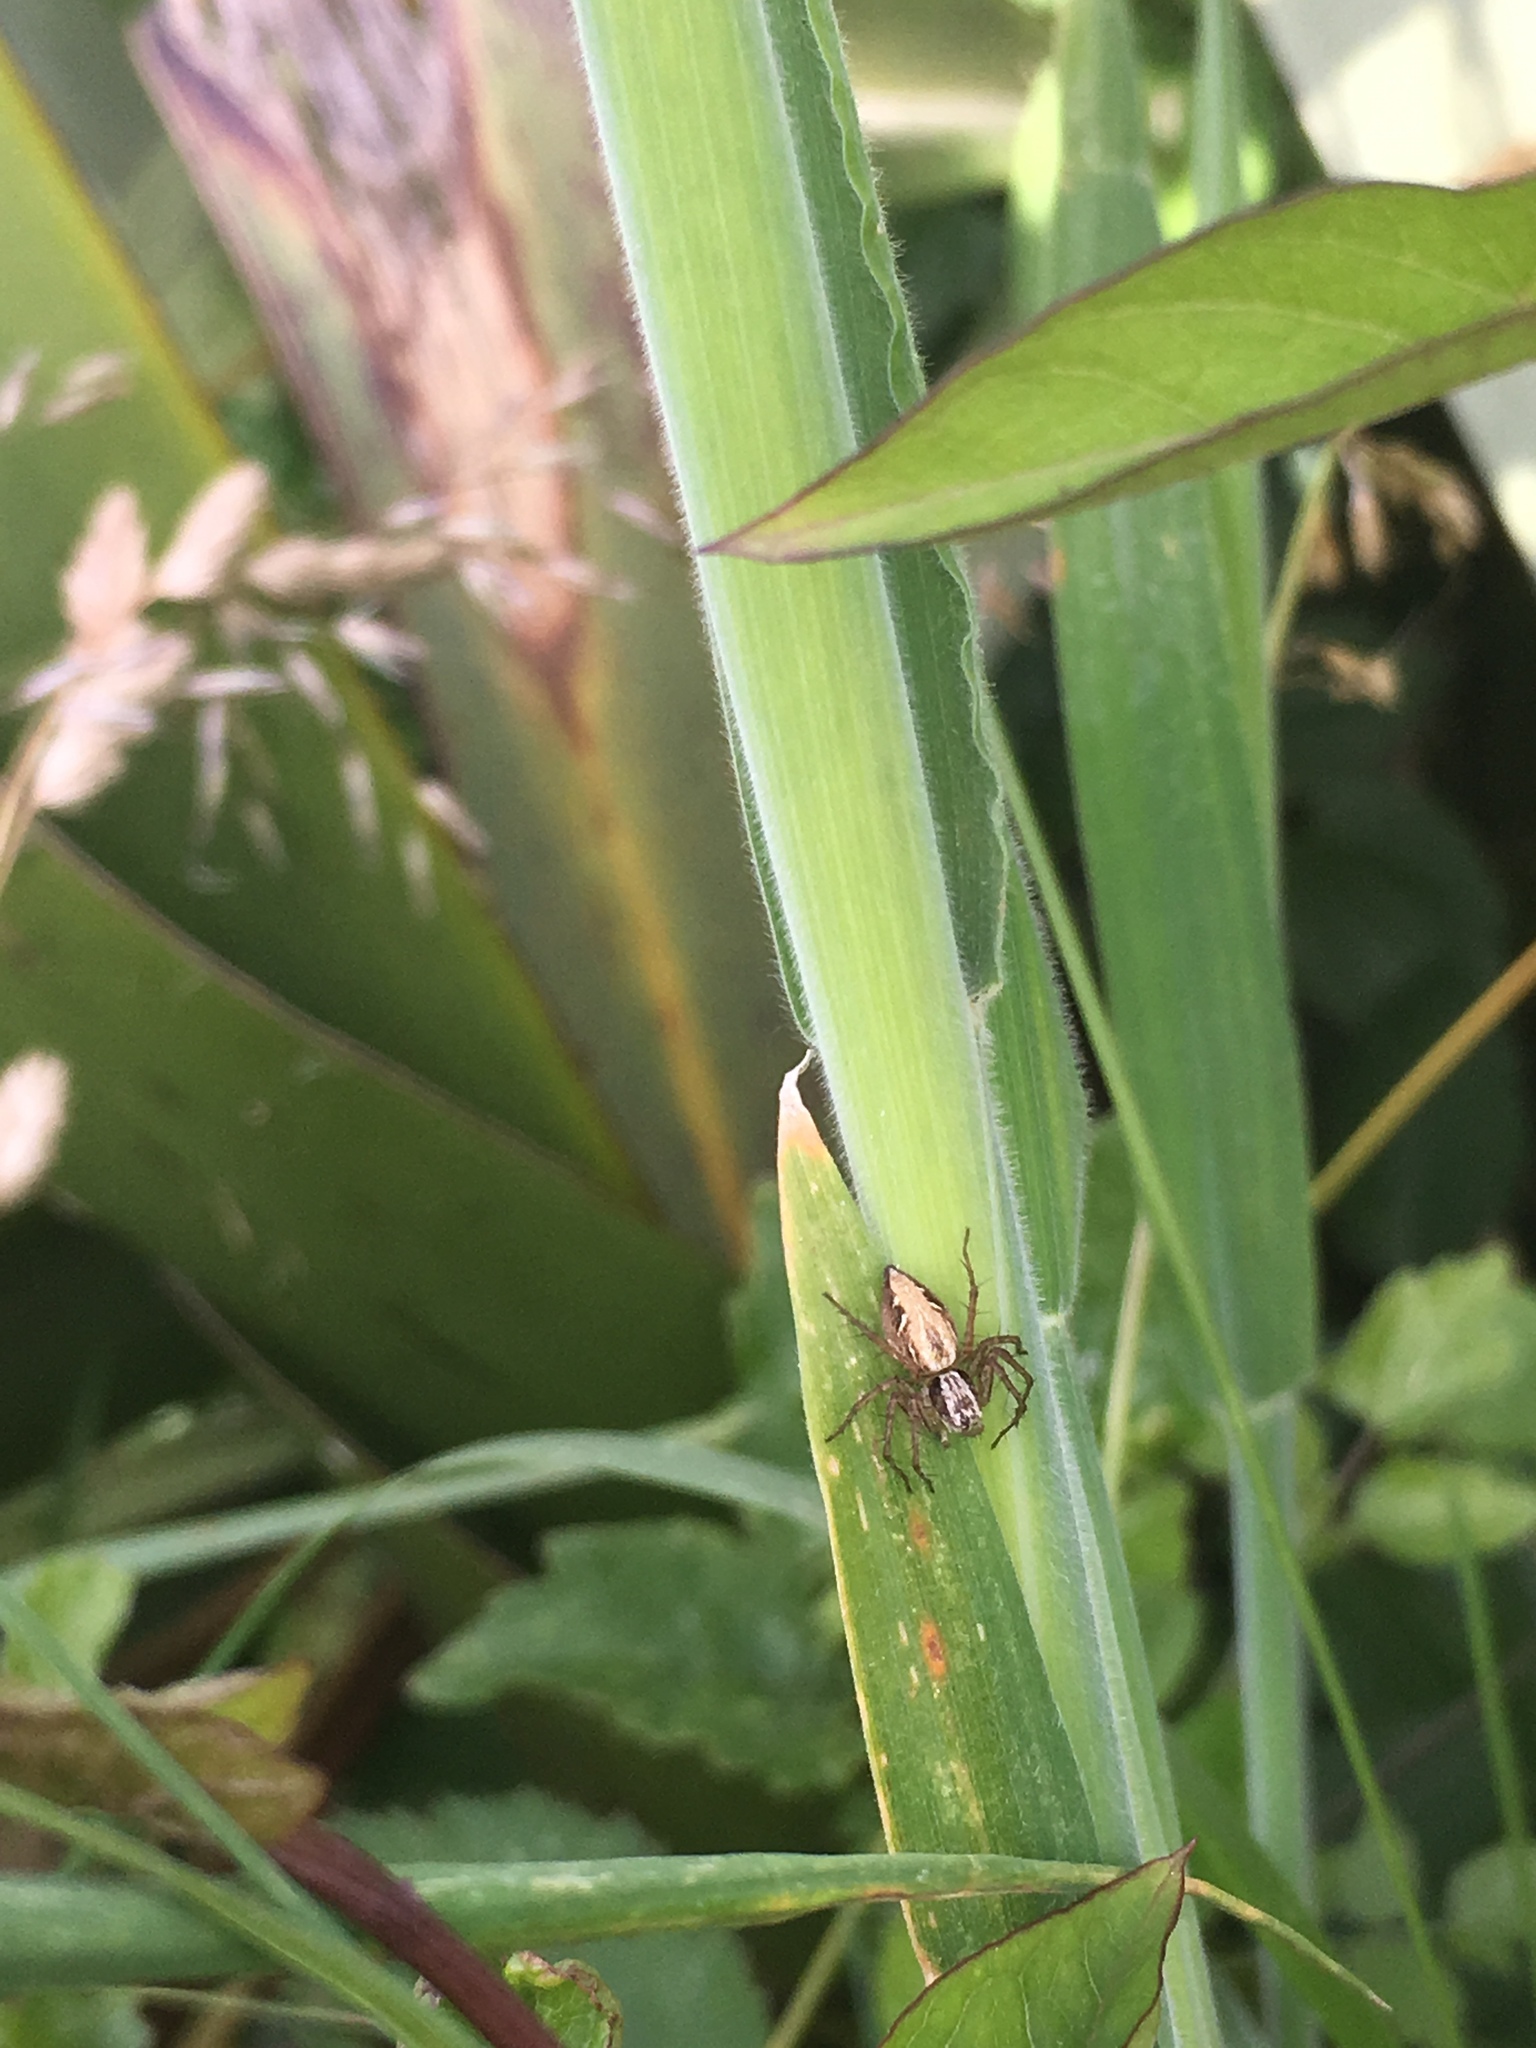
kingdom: Animalia
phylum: Arthropoda
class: Arachnida
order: Araneae
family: Oxyopidae
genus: Oxyopes
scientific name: Oxyopes gracilipes
